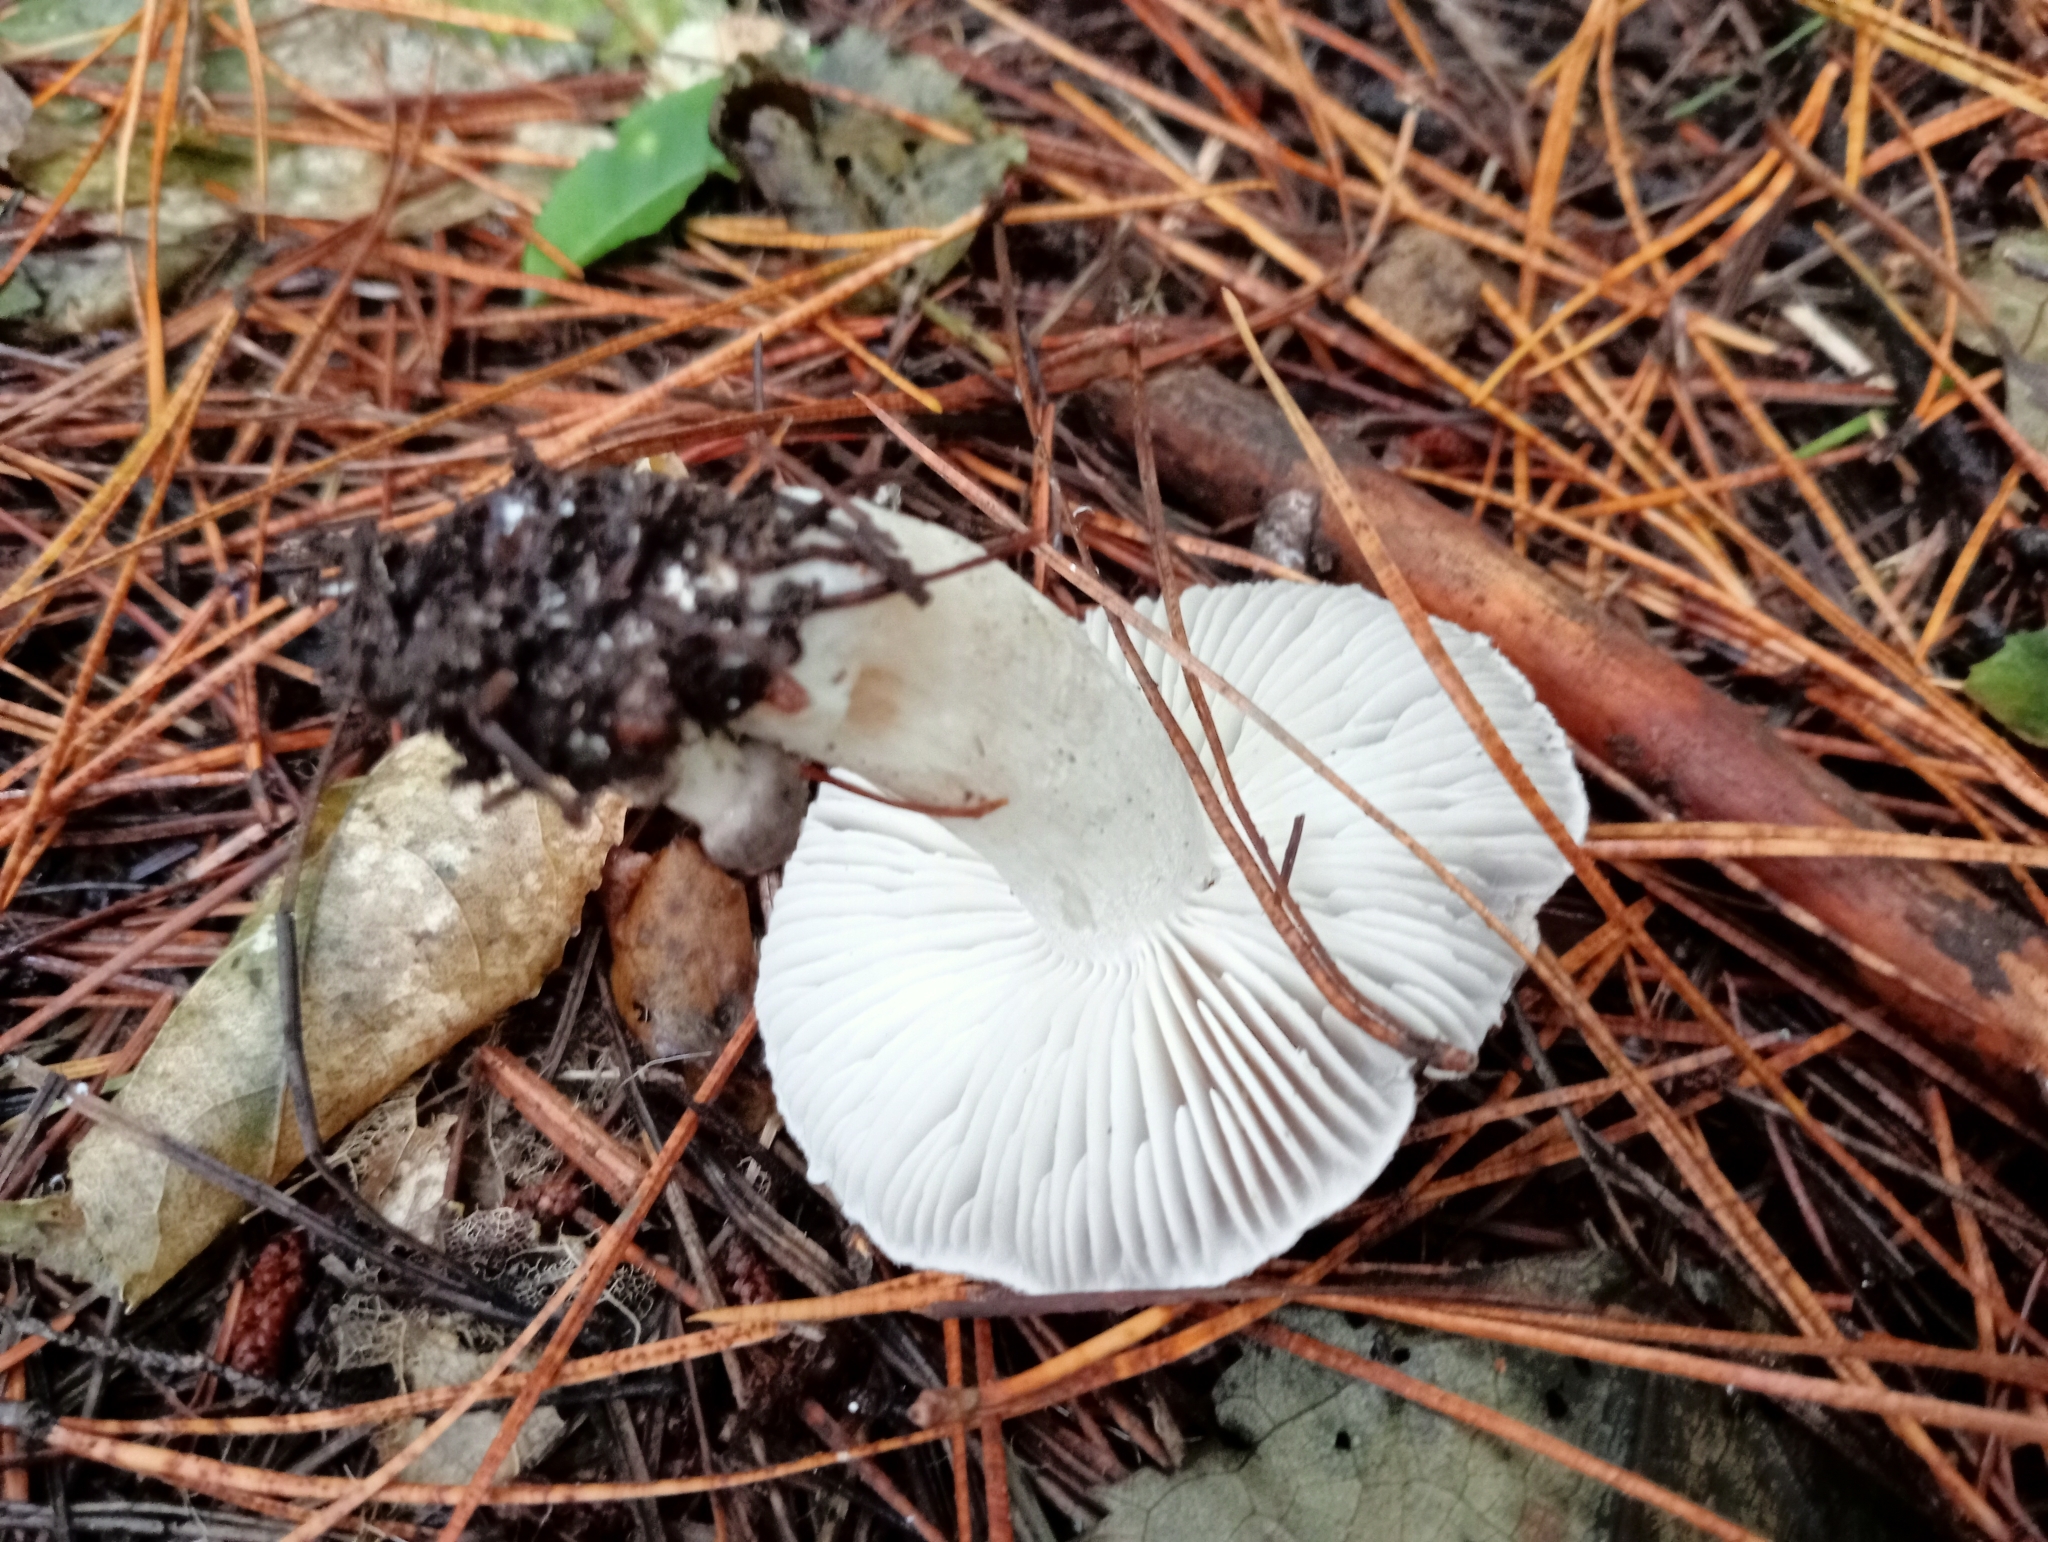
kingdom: Fungi
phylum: Basidiomycota
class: Agaricomycetes
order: Agaricales
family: Tricholomataceae
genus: Tricholoma
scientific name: Tricholoma terreum
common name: Grey knight
